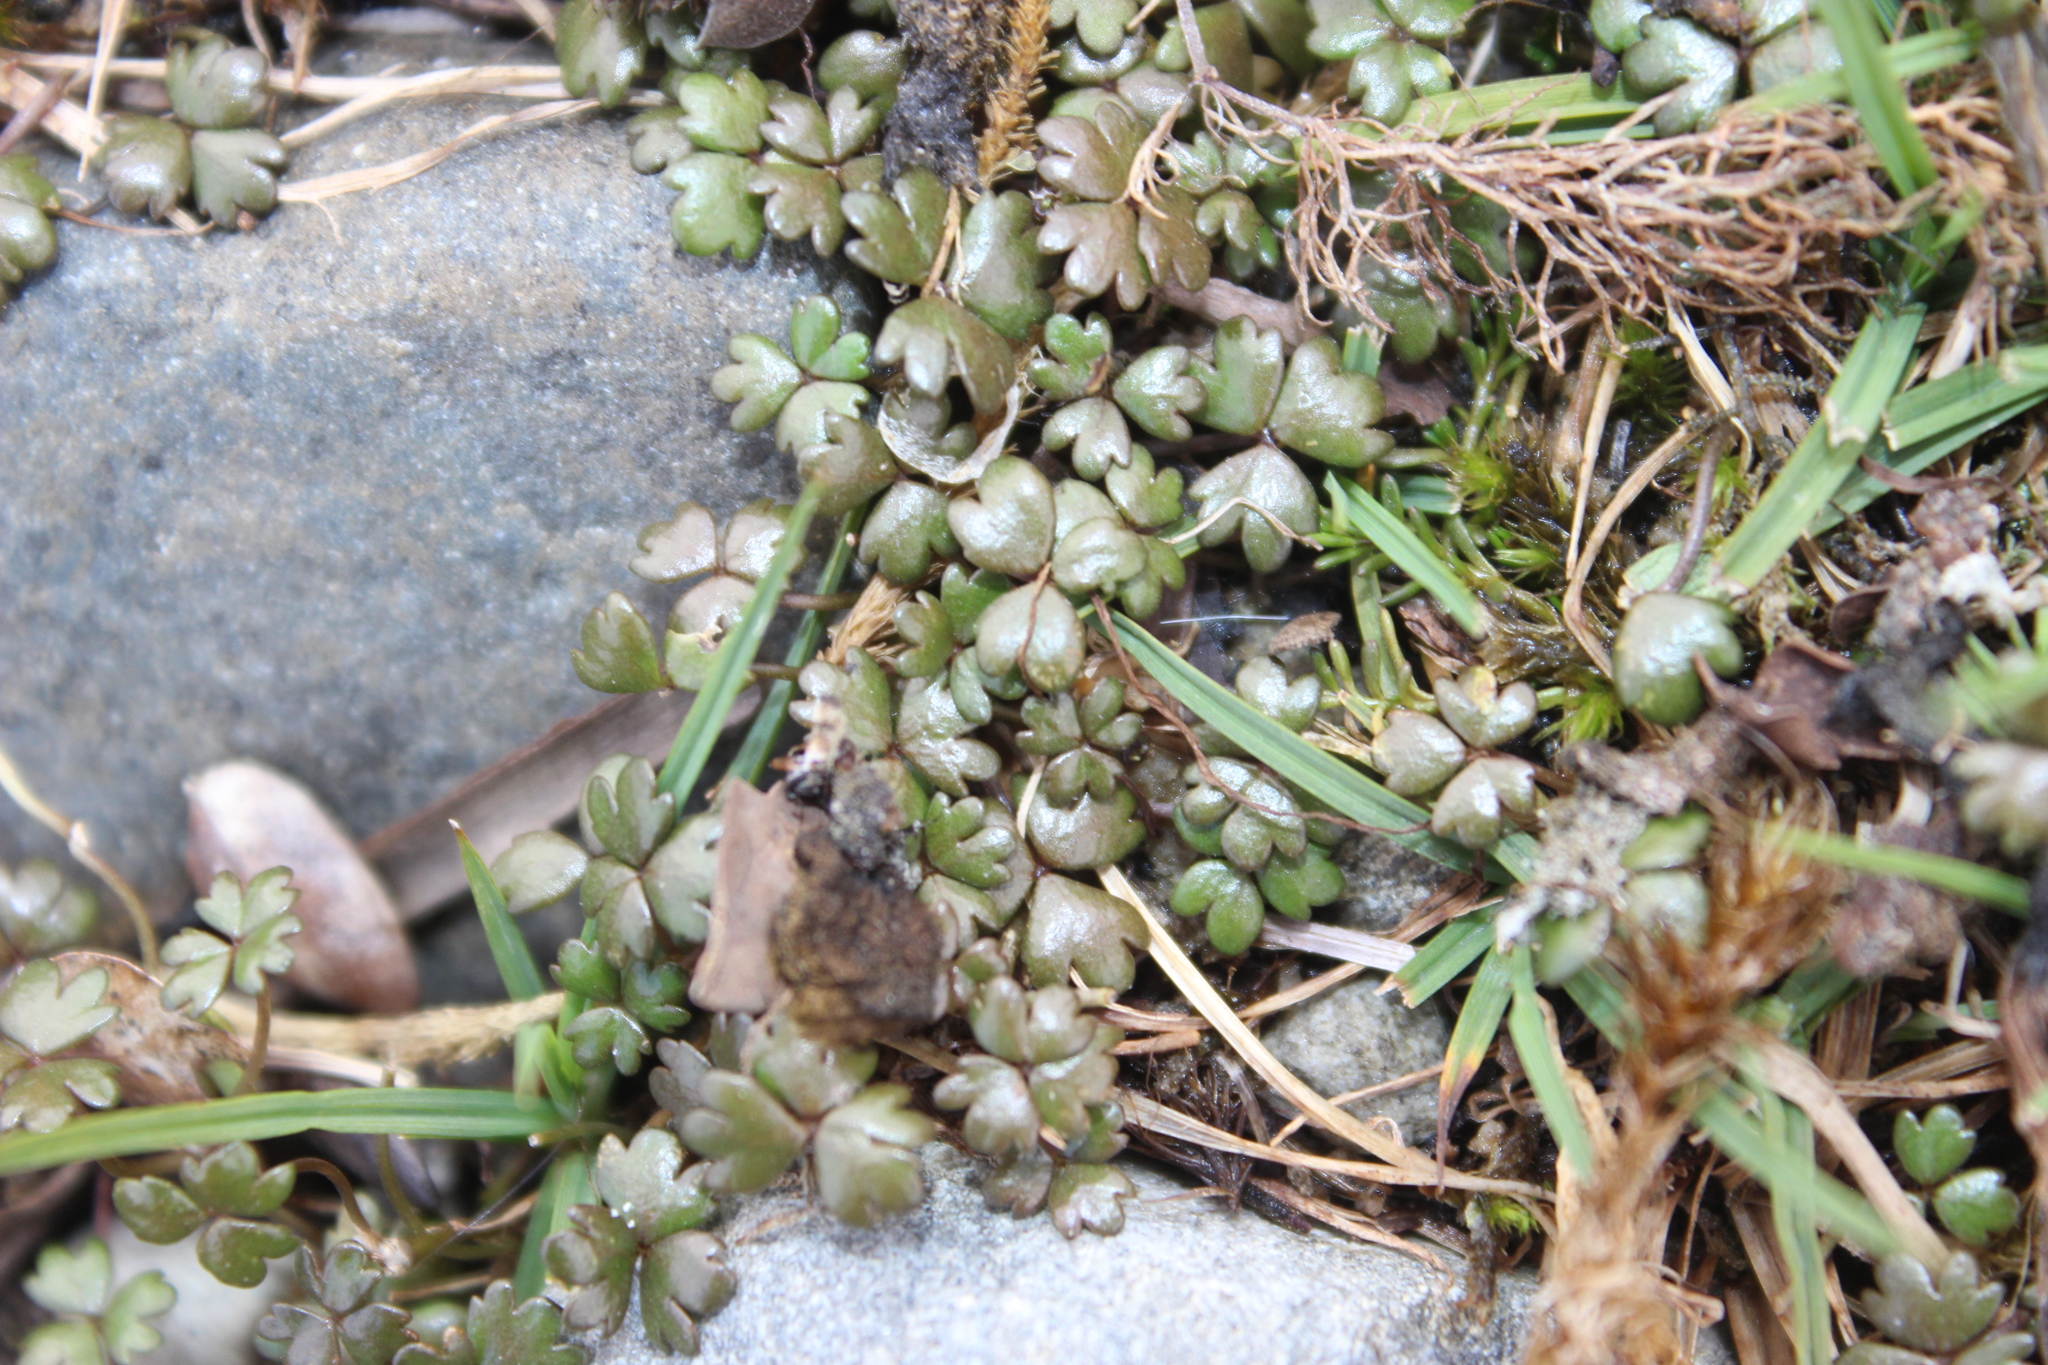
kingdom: Plantae
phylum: Tracheophyta
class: Magnoliopsida
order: Apiales
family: Araliaceae
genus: Hydrocotyle
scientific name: Hydrocotyle sulcata
